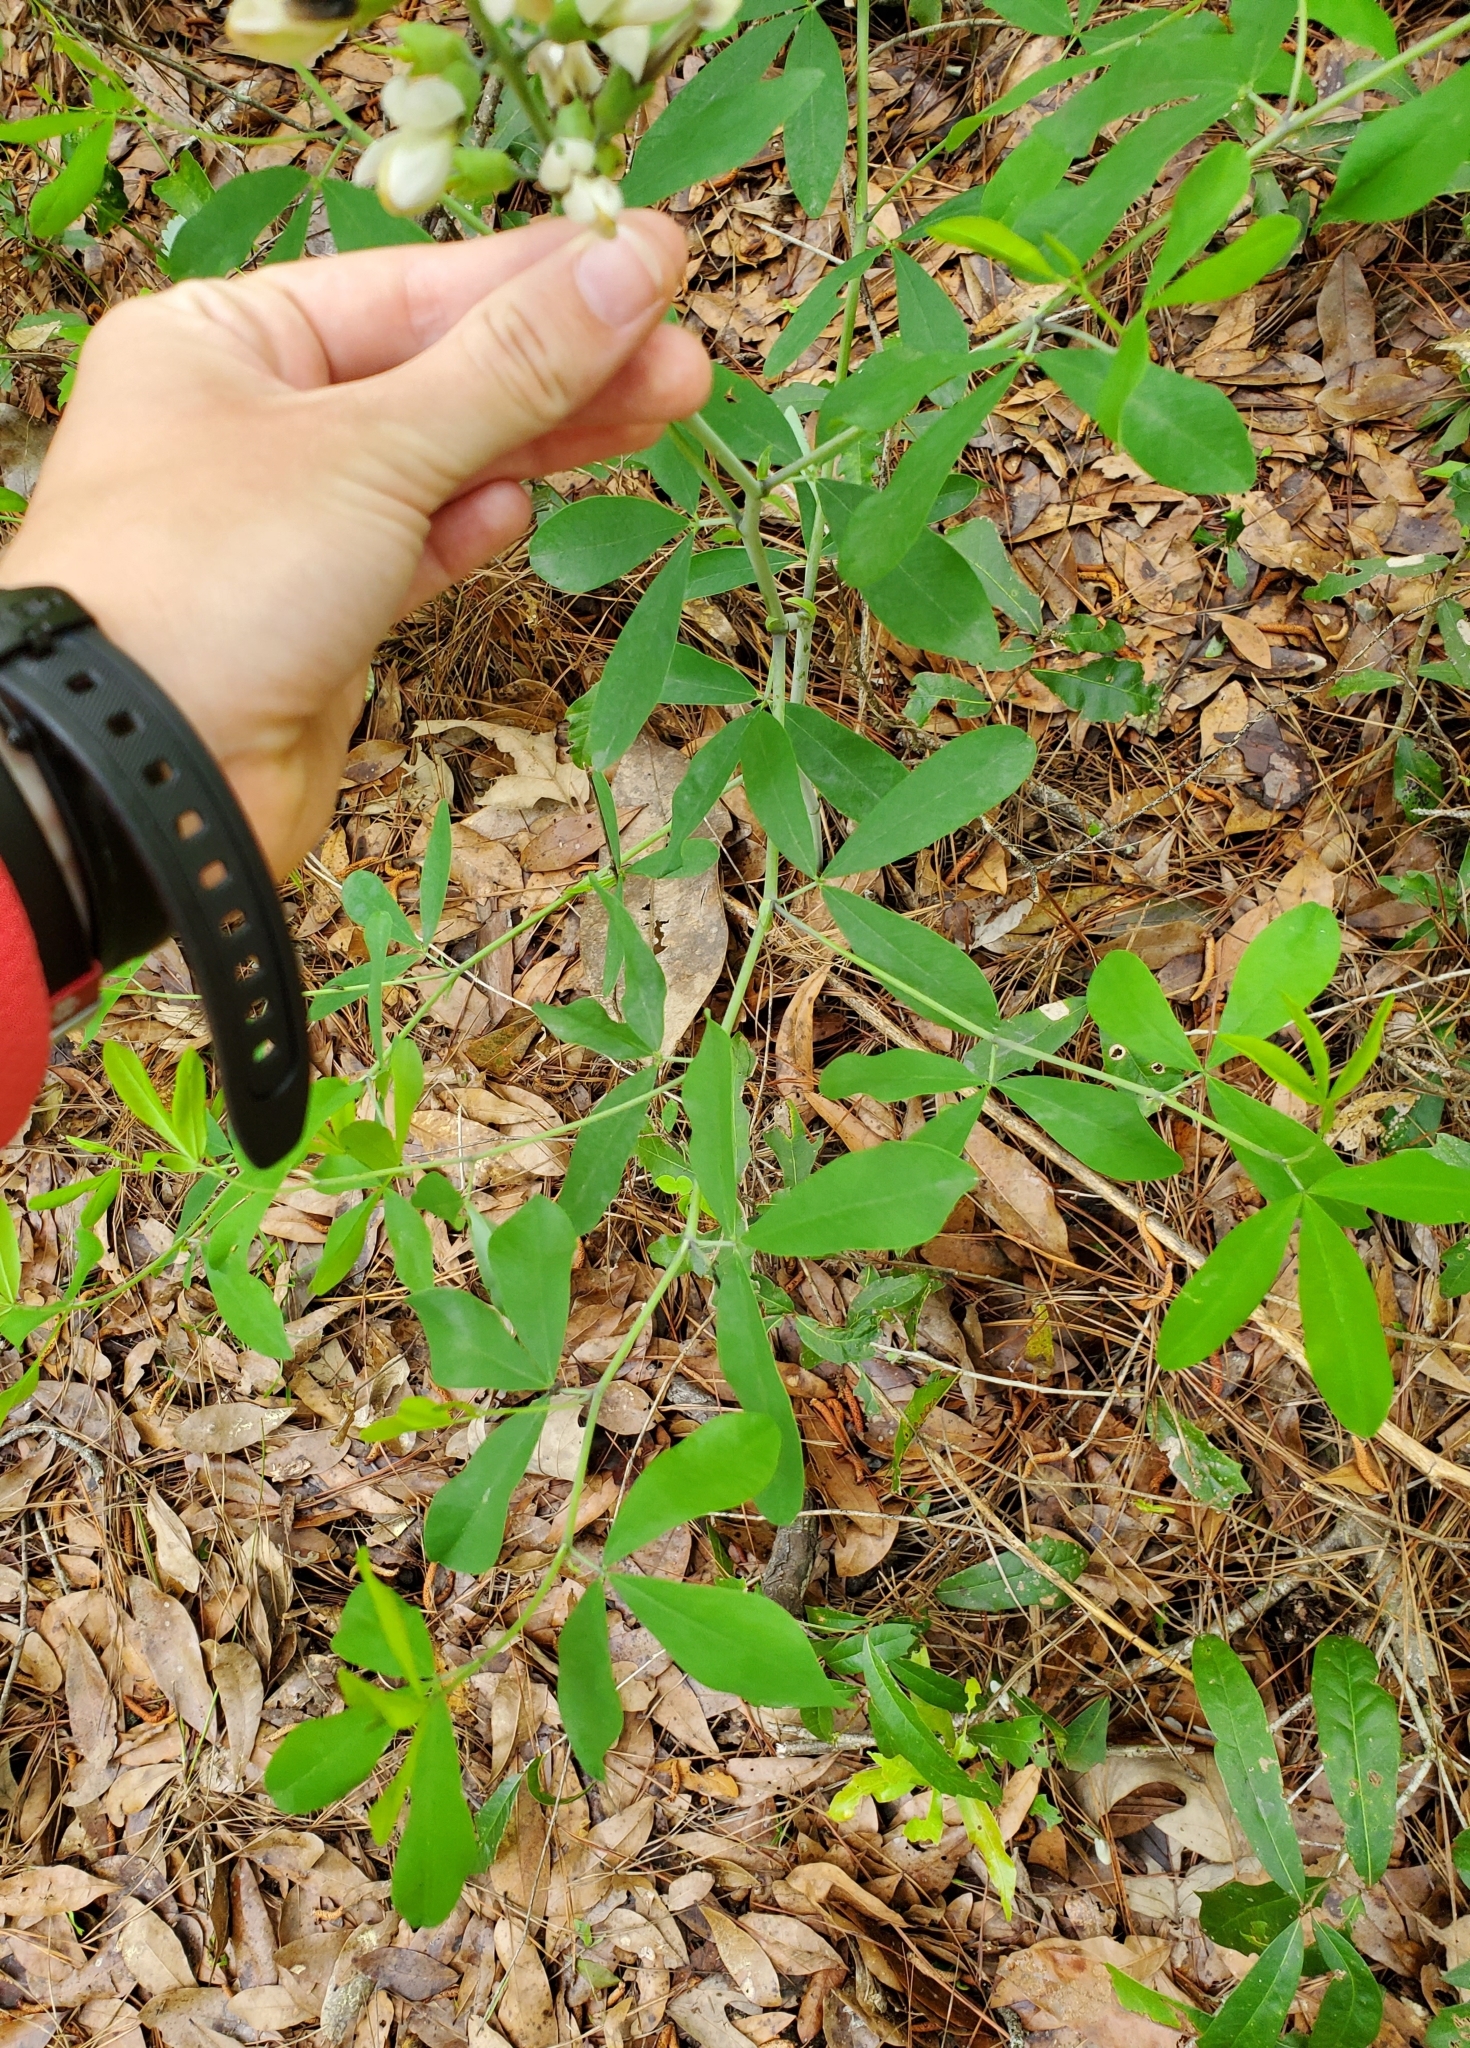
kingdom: Plantae
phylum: Tracheophyta
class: Magnoliopsida
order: Fabales
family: Fabaceae
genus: Baptisia
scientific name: Baptisia alba
